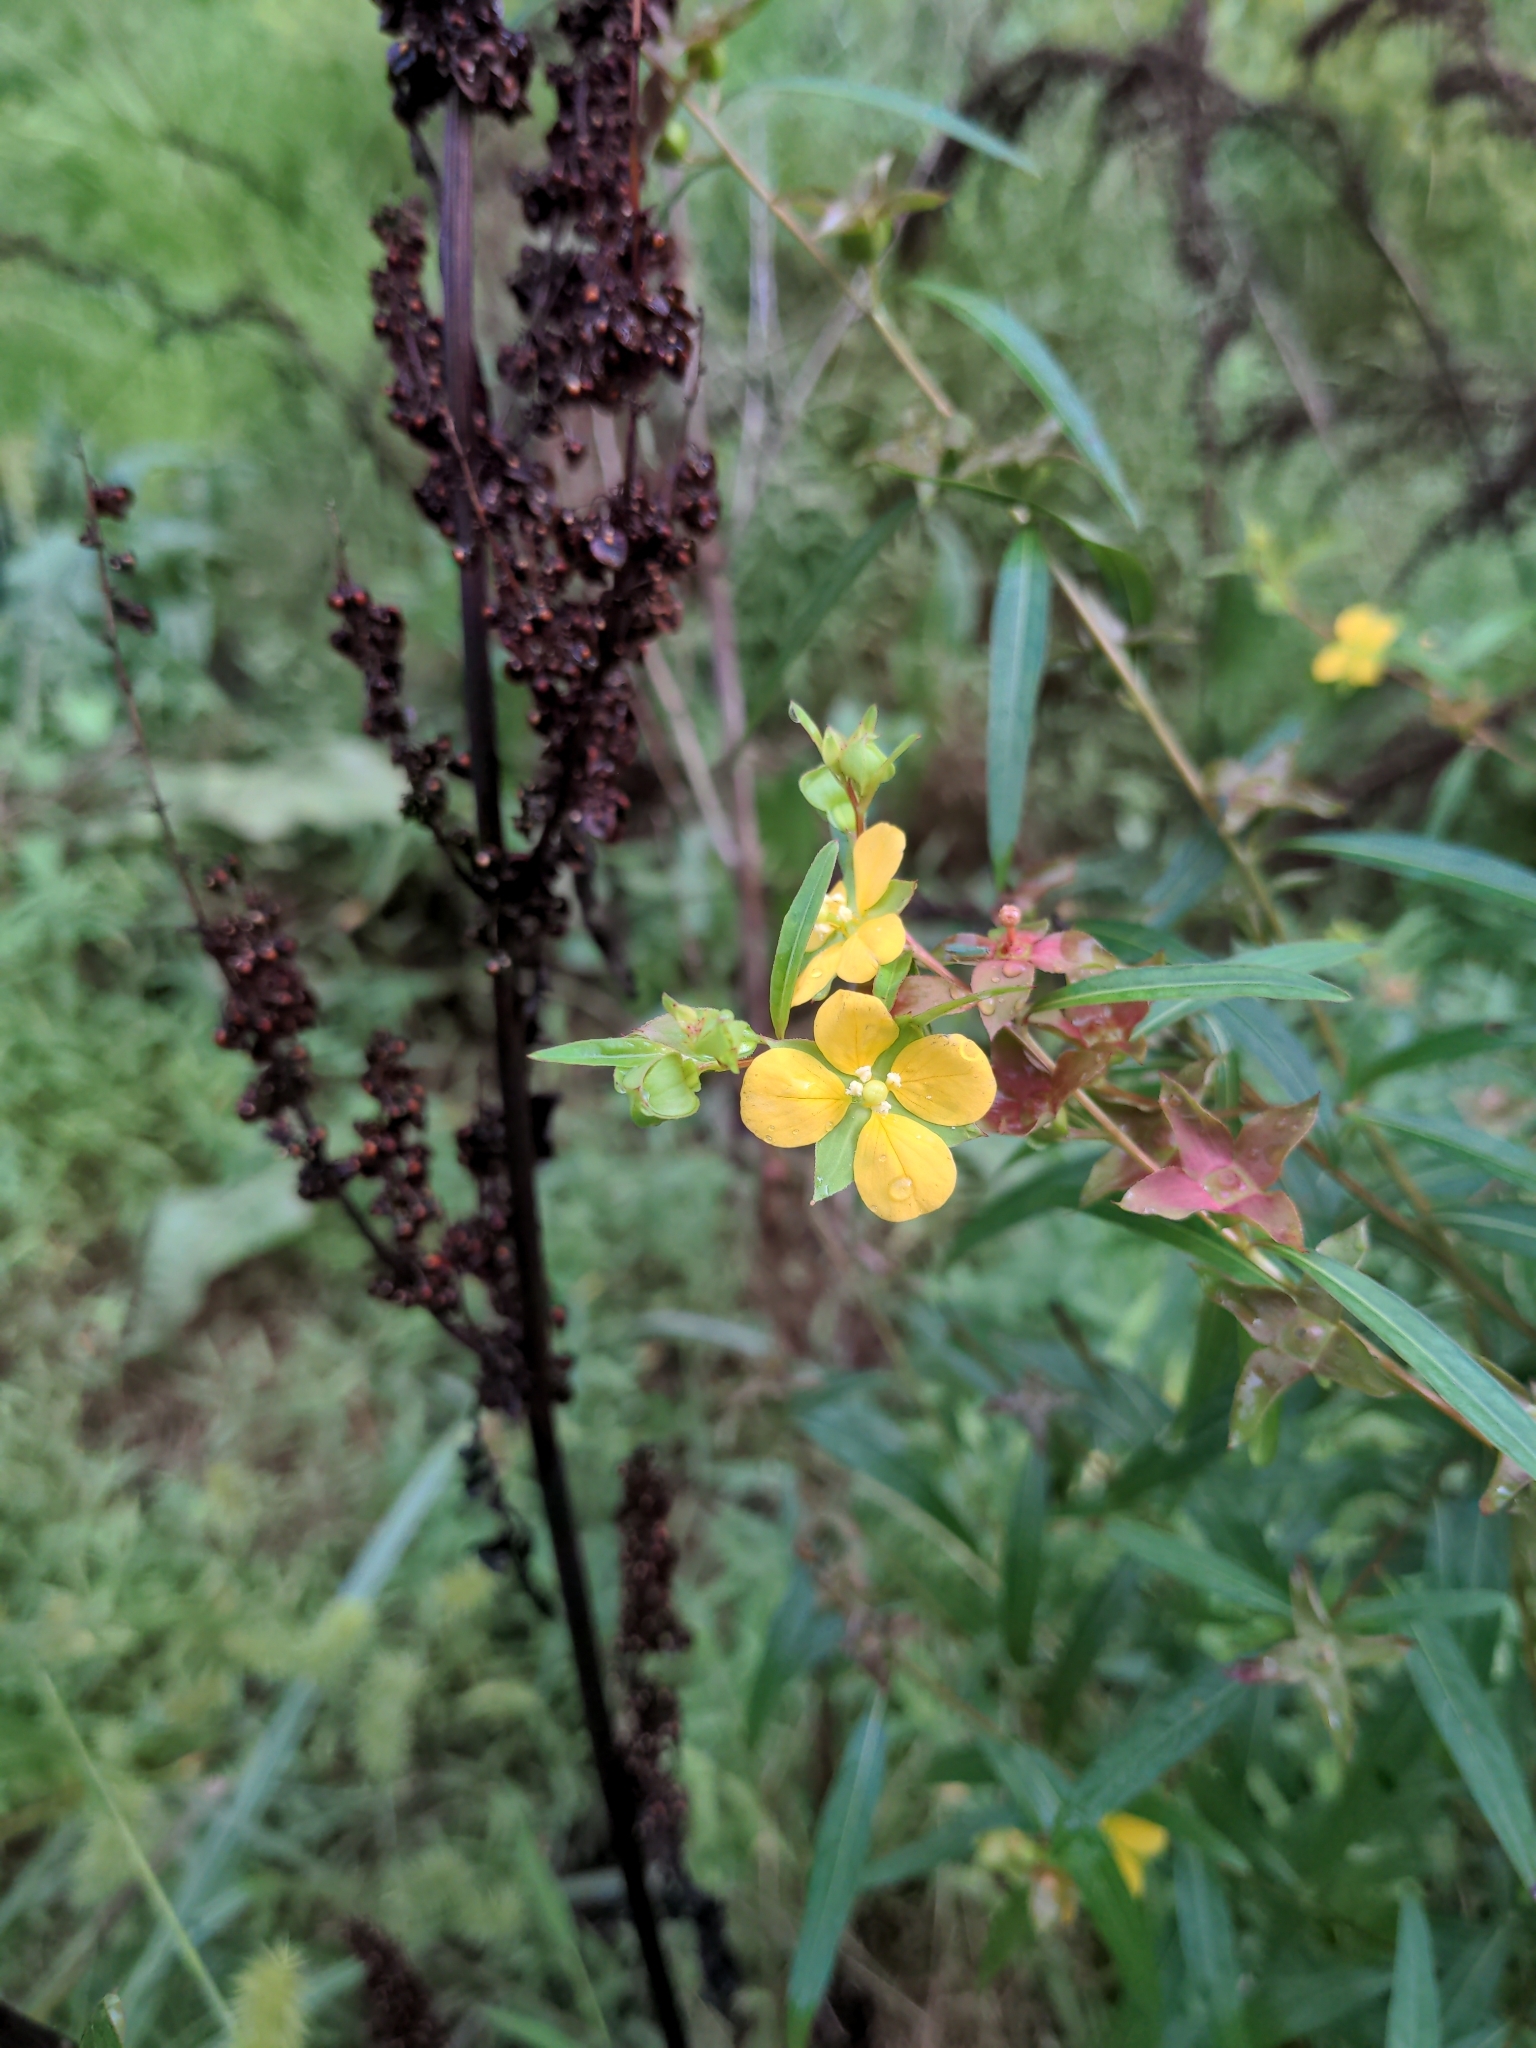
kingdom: Plantae
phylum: Tracheophyta
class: Magnoliopsida
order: Myrtales
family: Onagraceae
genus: Ludwigia
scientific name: Ludwigia alternifolia
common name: Rattlebox
